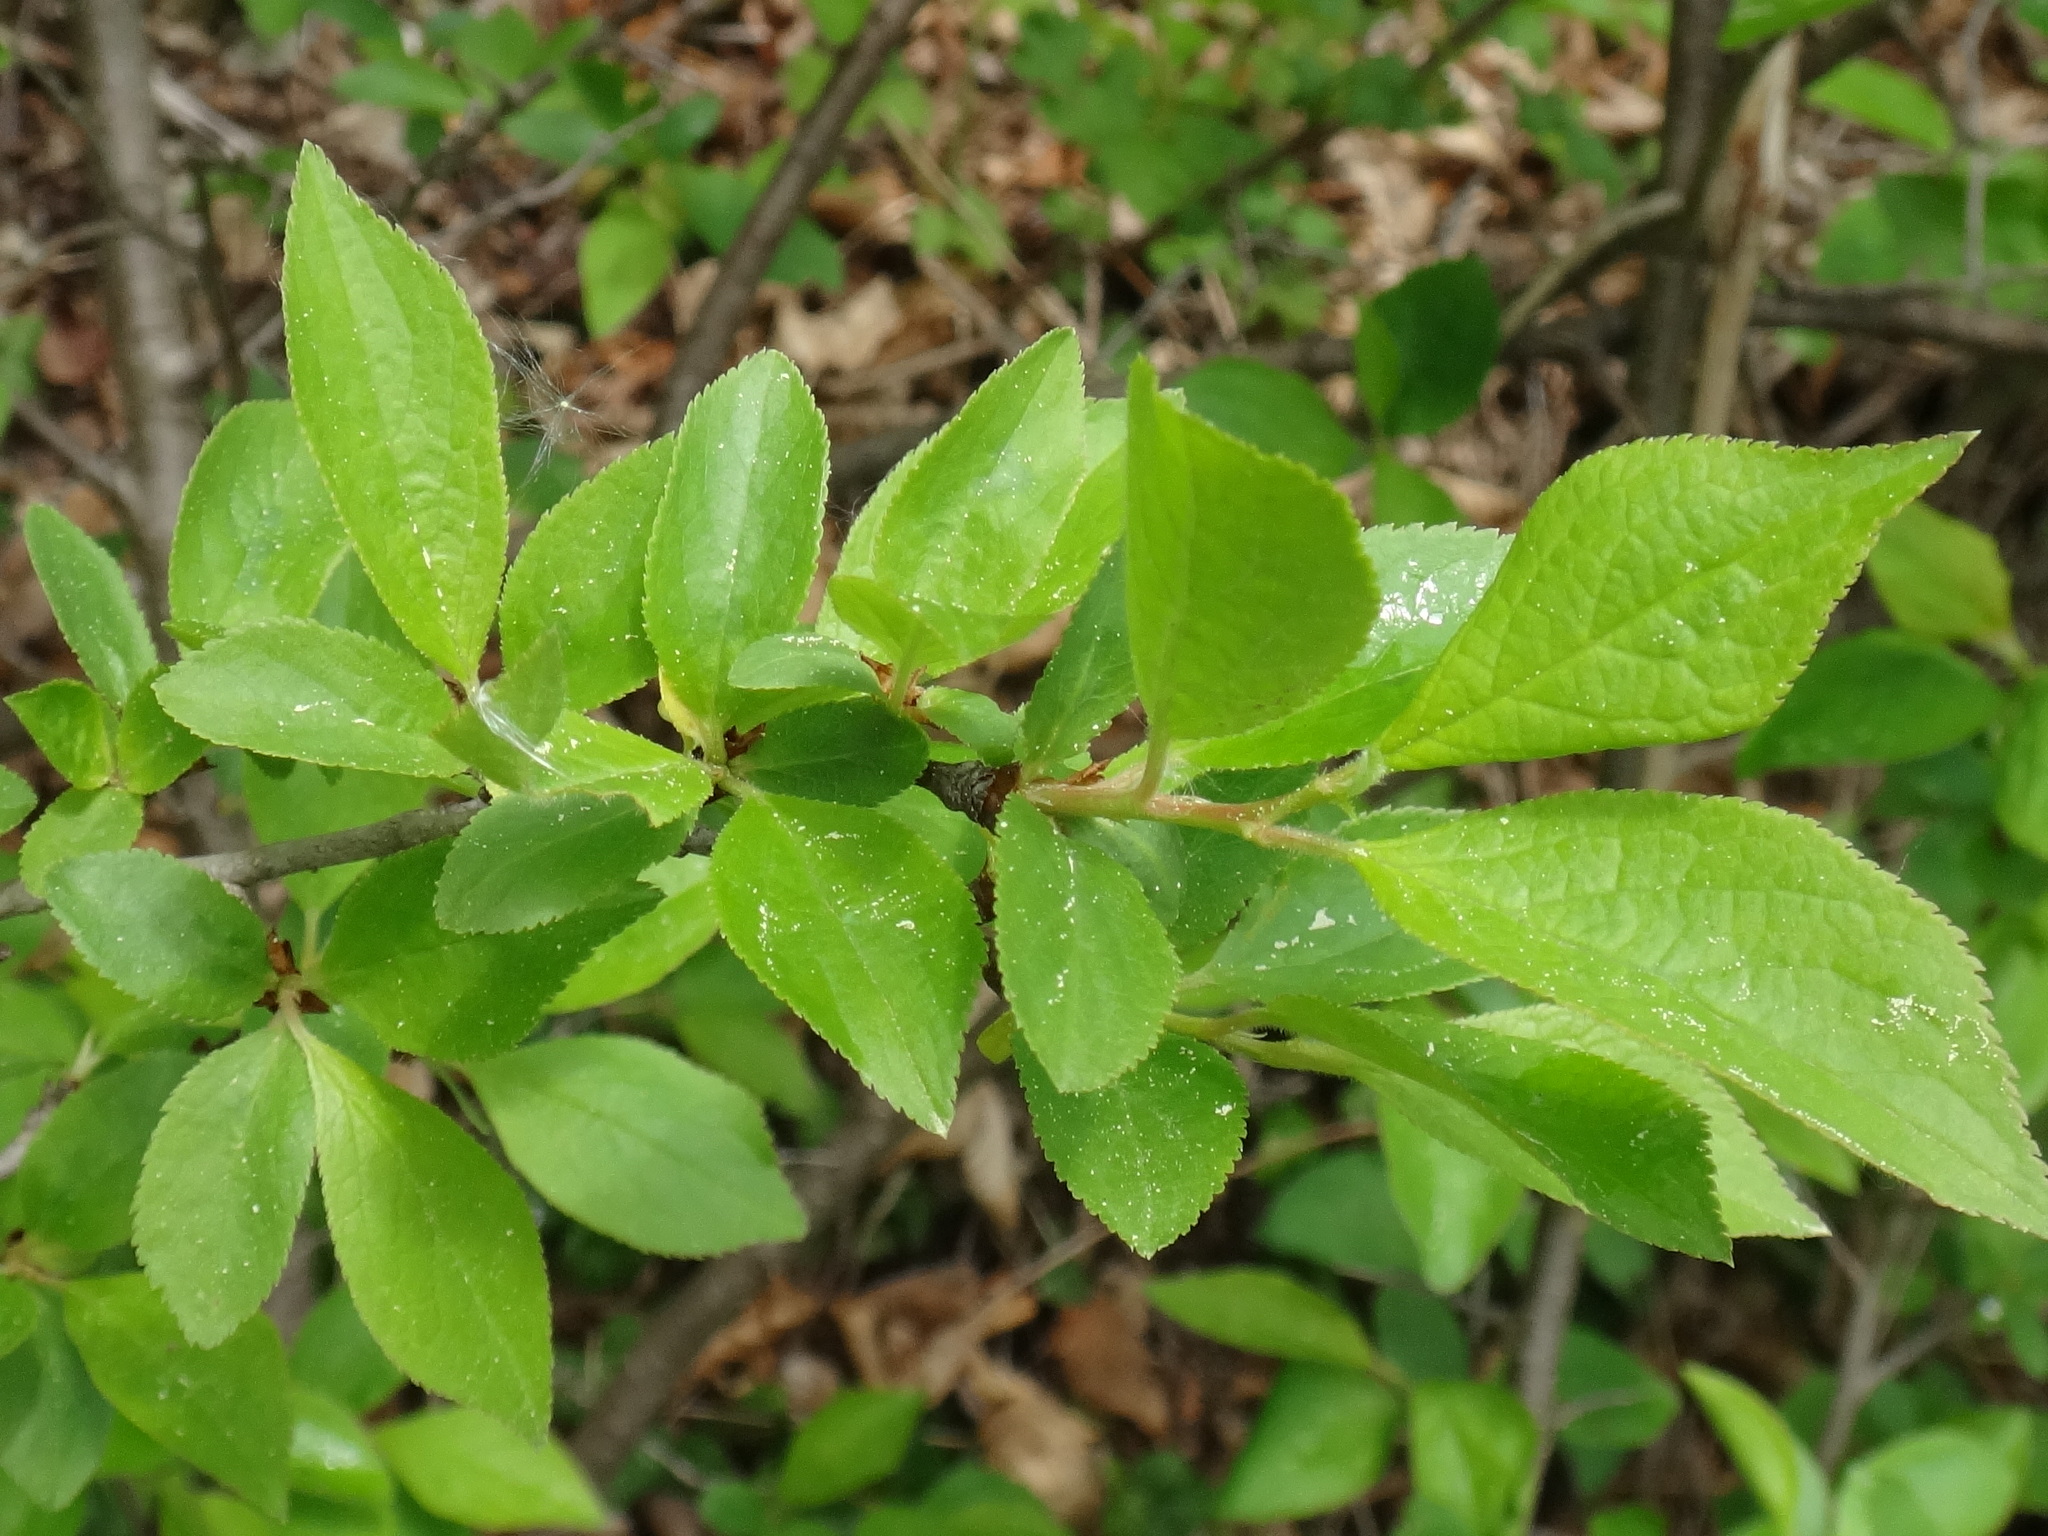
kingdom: Plantae
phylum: Tracheophyta
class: Magnoliopsida
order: Rosales
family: Rosaceae
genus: Prunus
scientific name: Prunus spinosa
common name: Blackthorn
